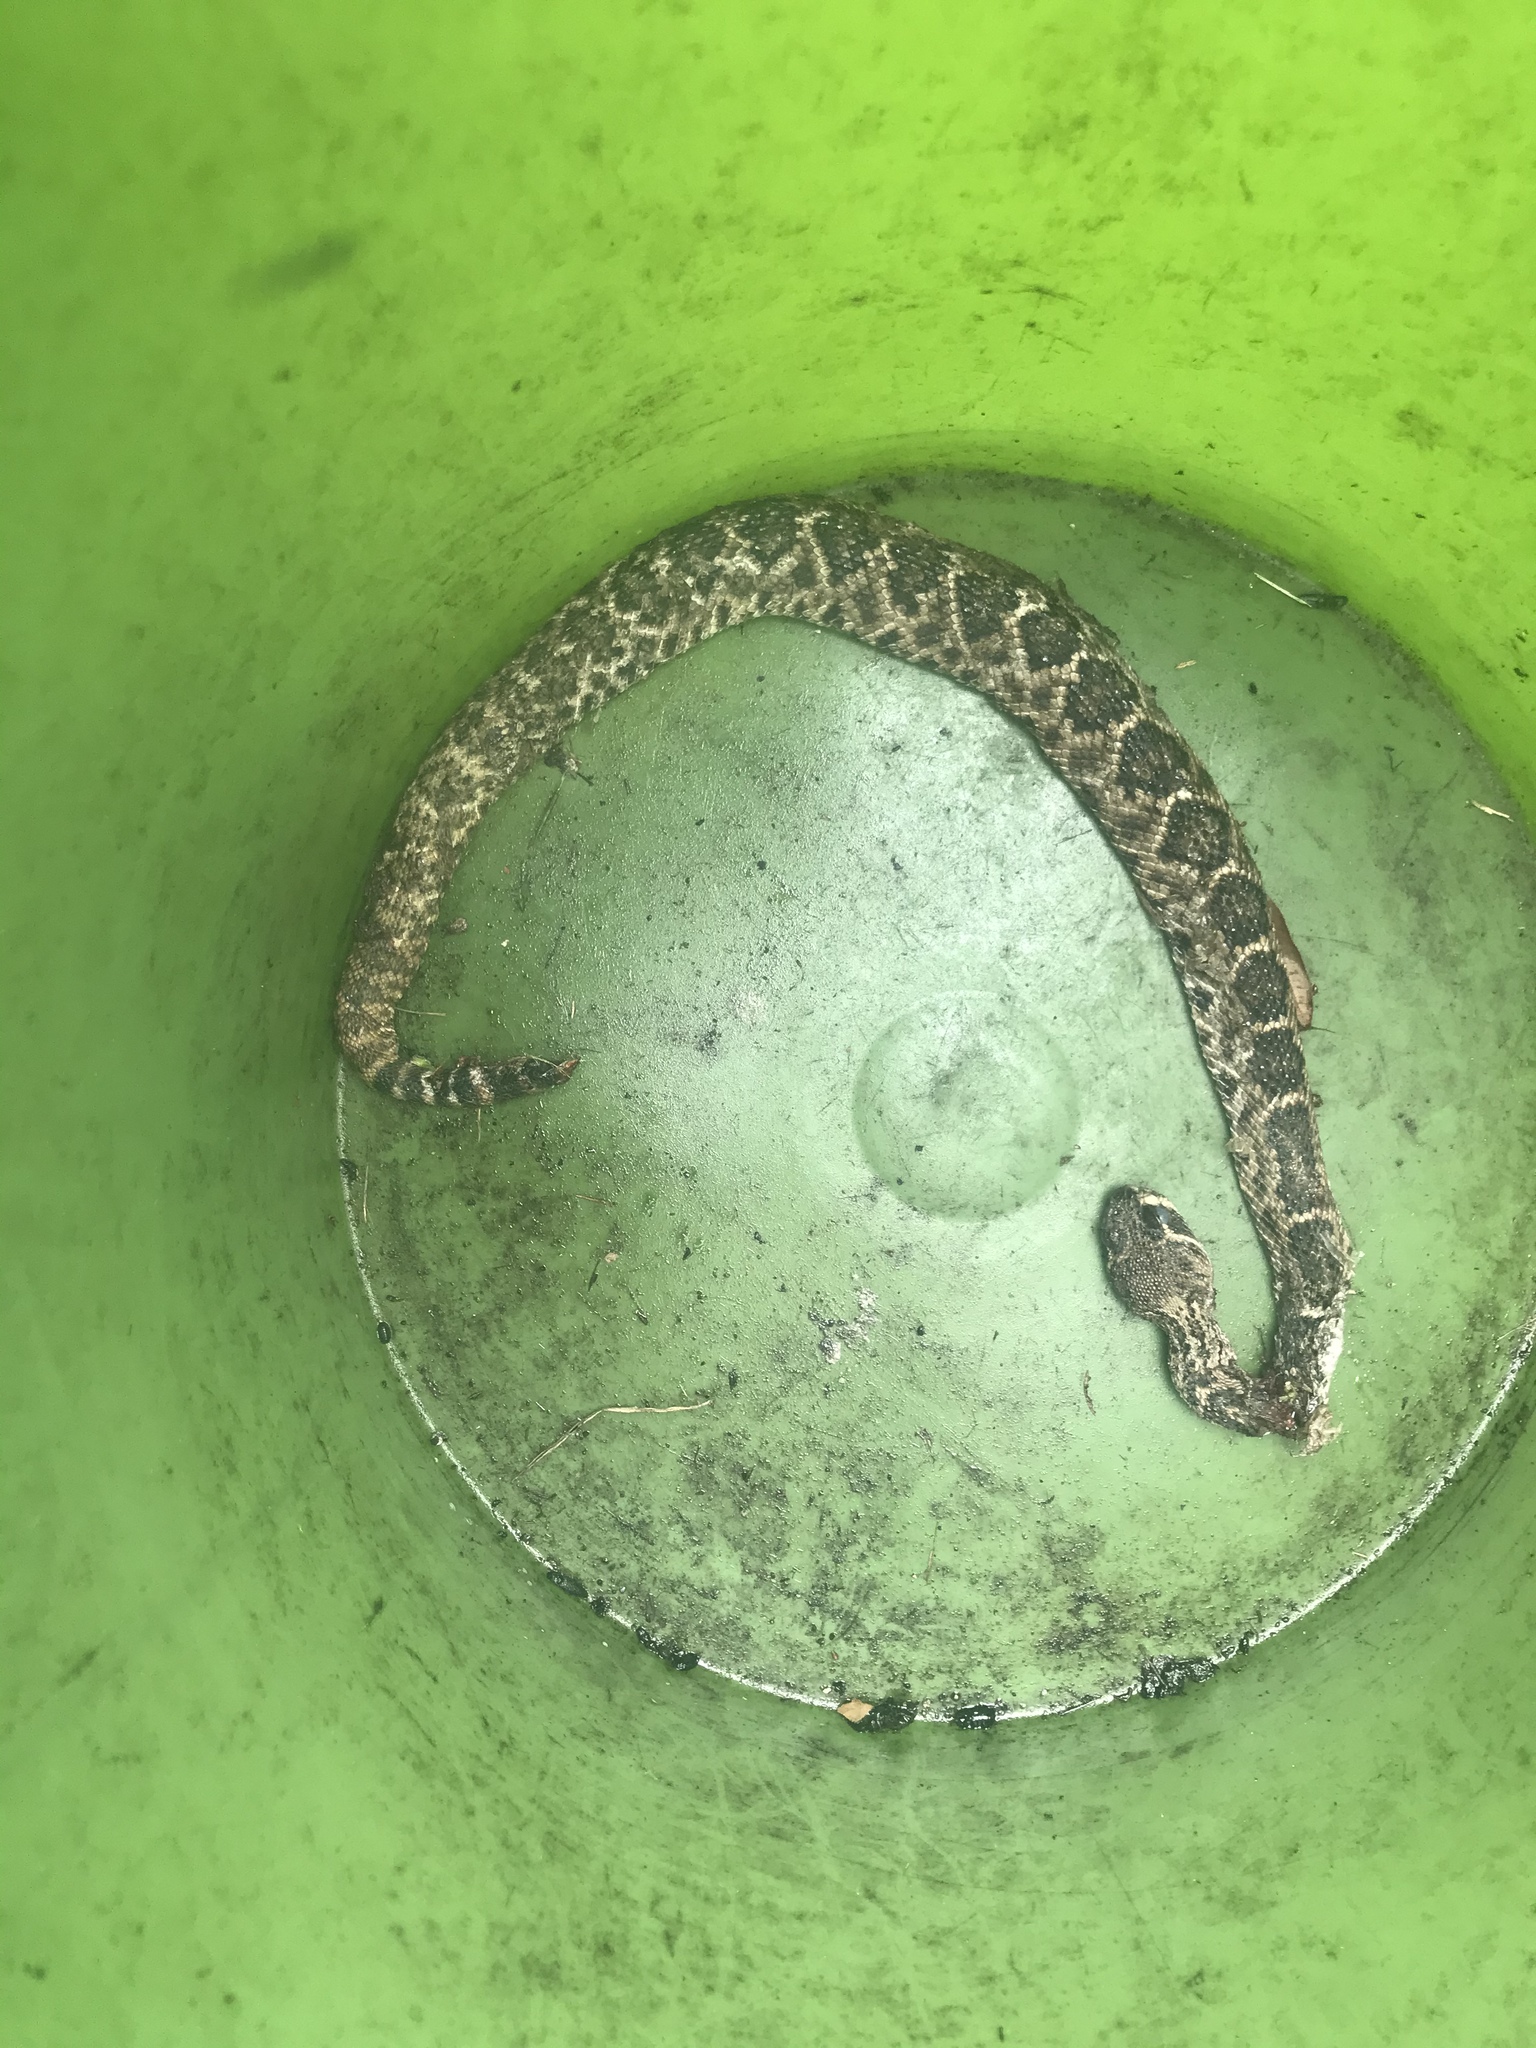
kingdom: Animalia
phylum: Chordata
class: Squamata
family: Viperidae
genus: Crotalus
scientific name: Crotalus atrox
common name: Western diamond-backed rattlesnake
